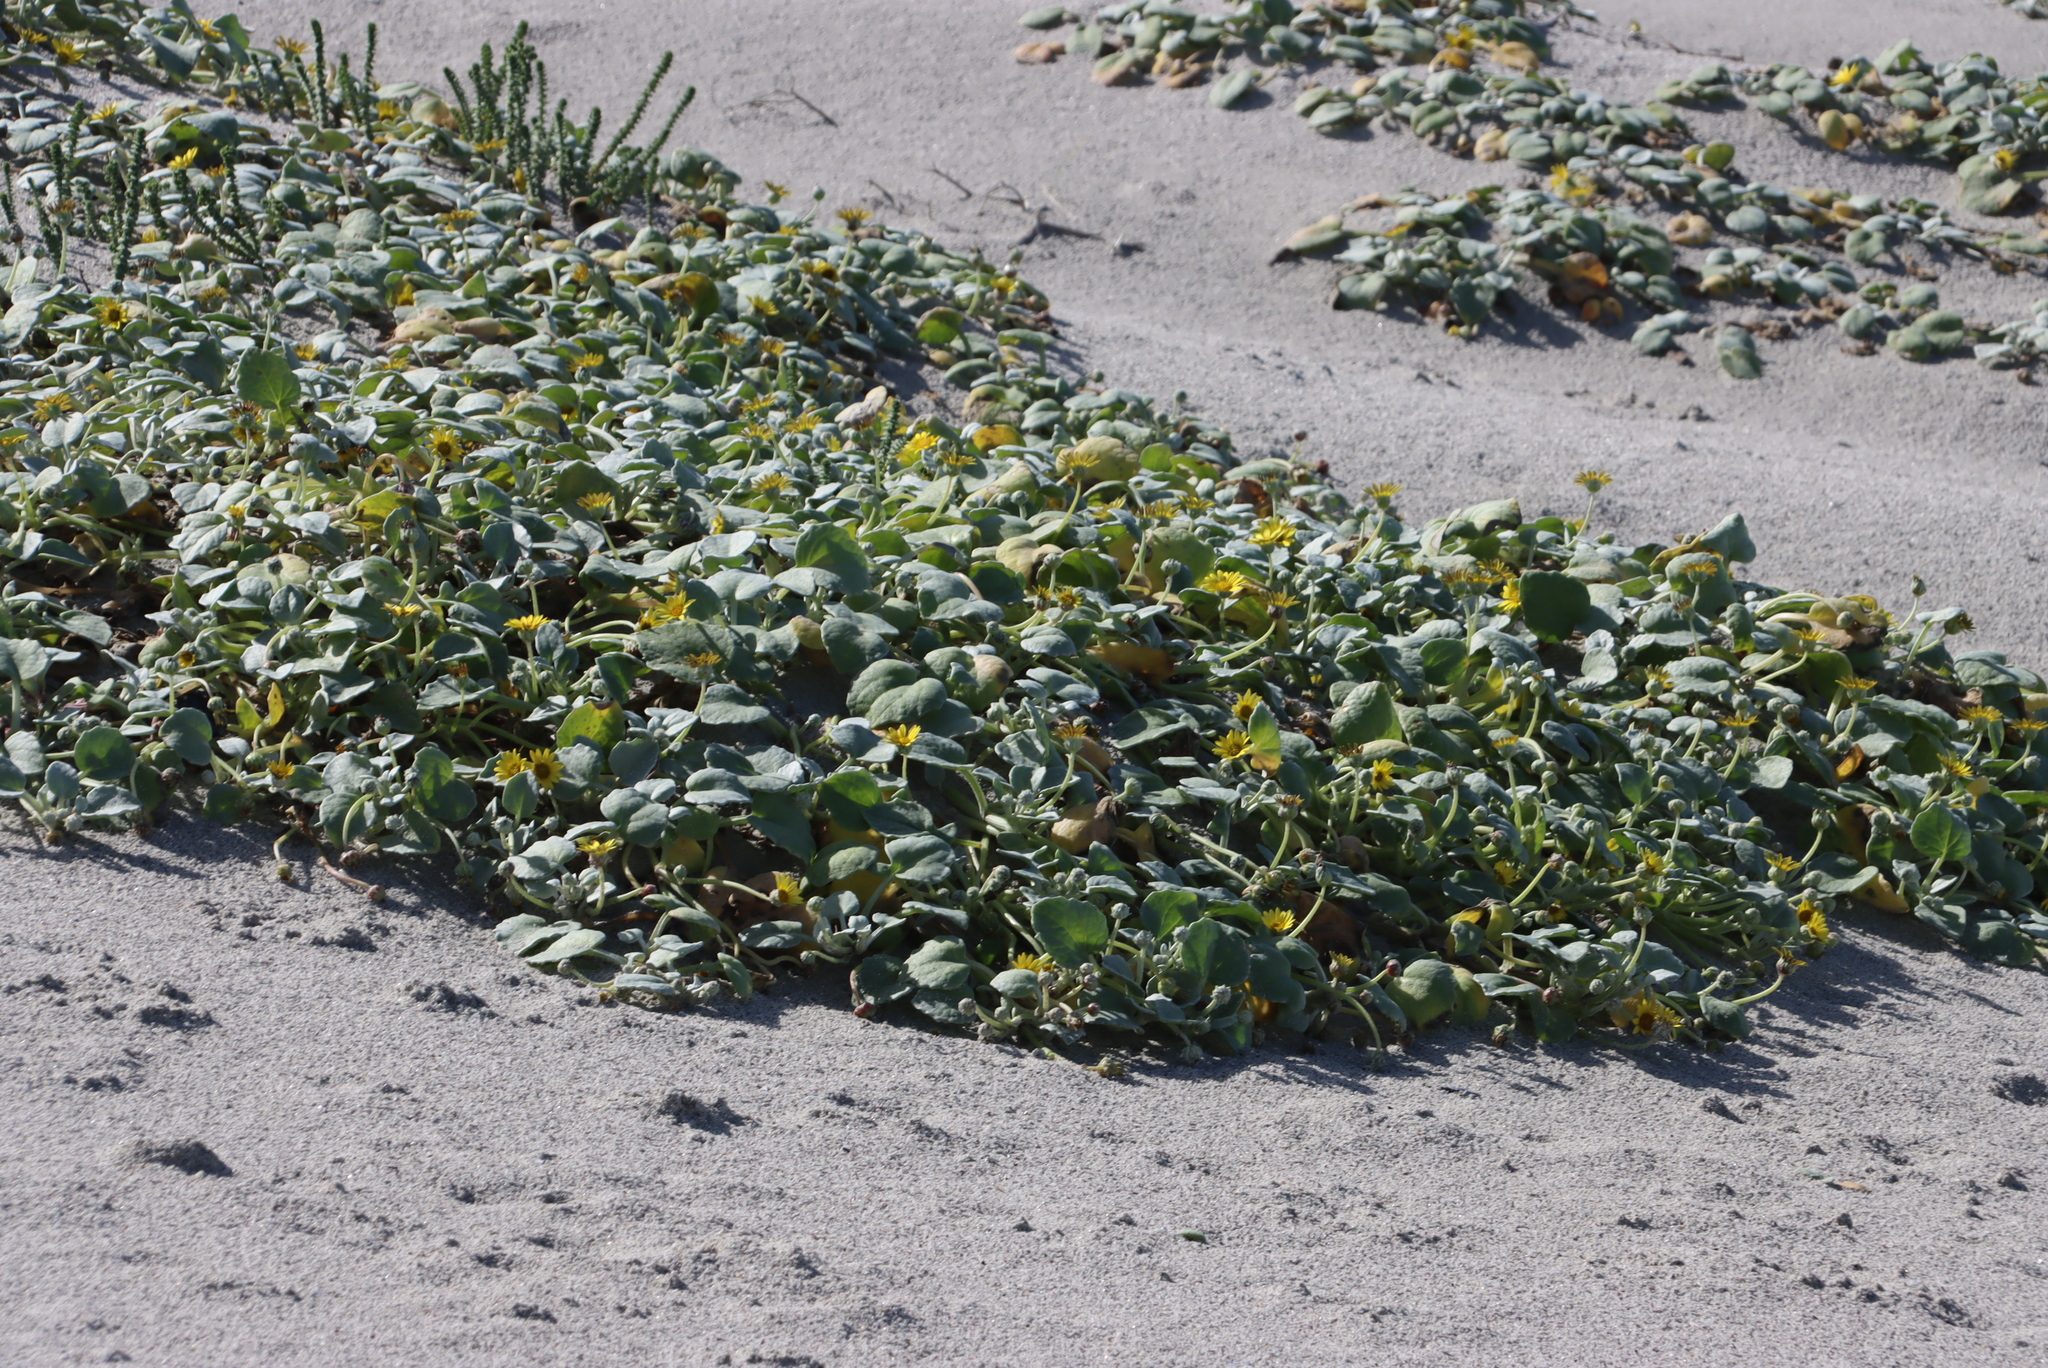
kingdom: Plantae
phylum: Tracheophyta
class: Magnoliopsida
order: Asterales
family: Asteraceae
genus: Arctotheca
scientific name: Arctotheca populifolia
